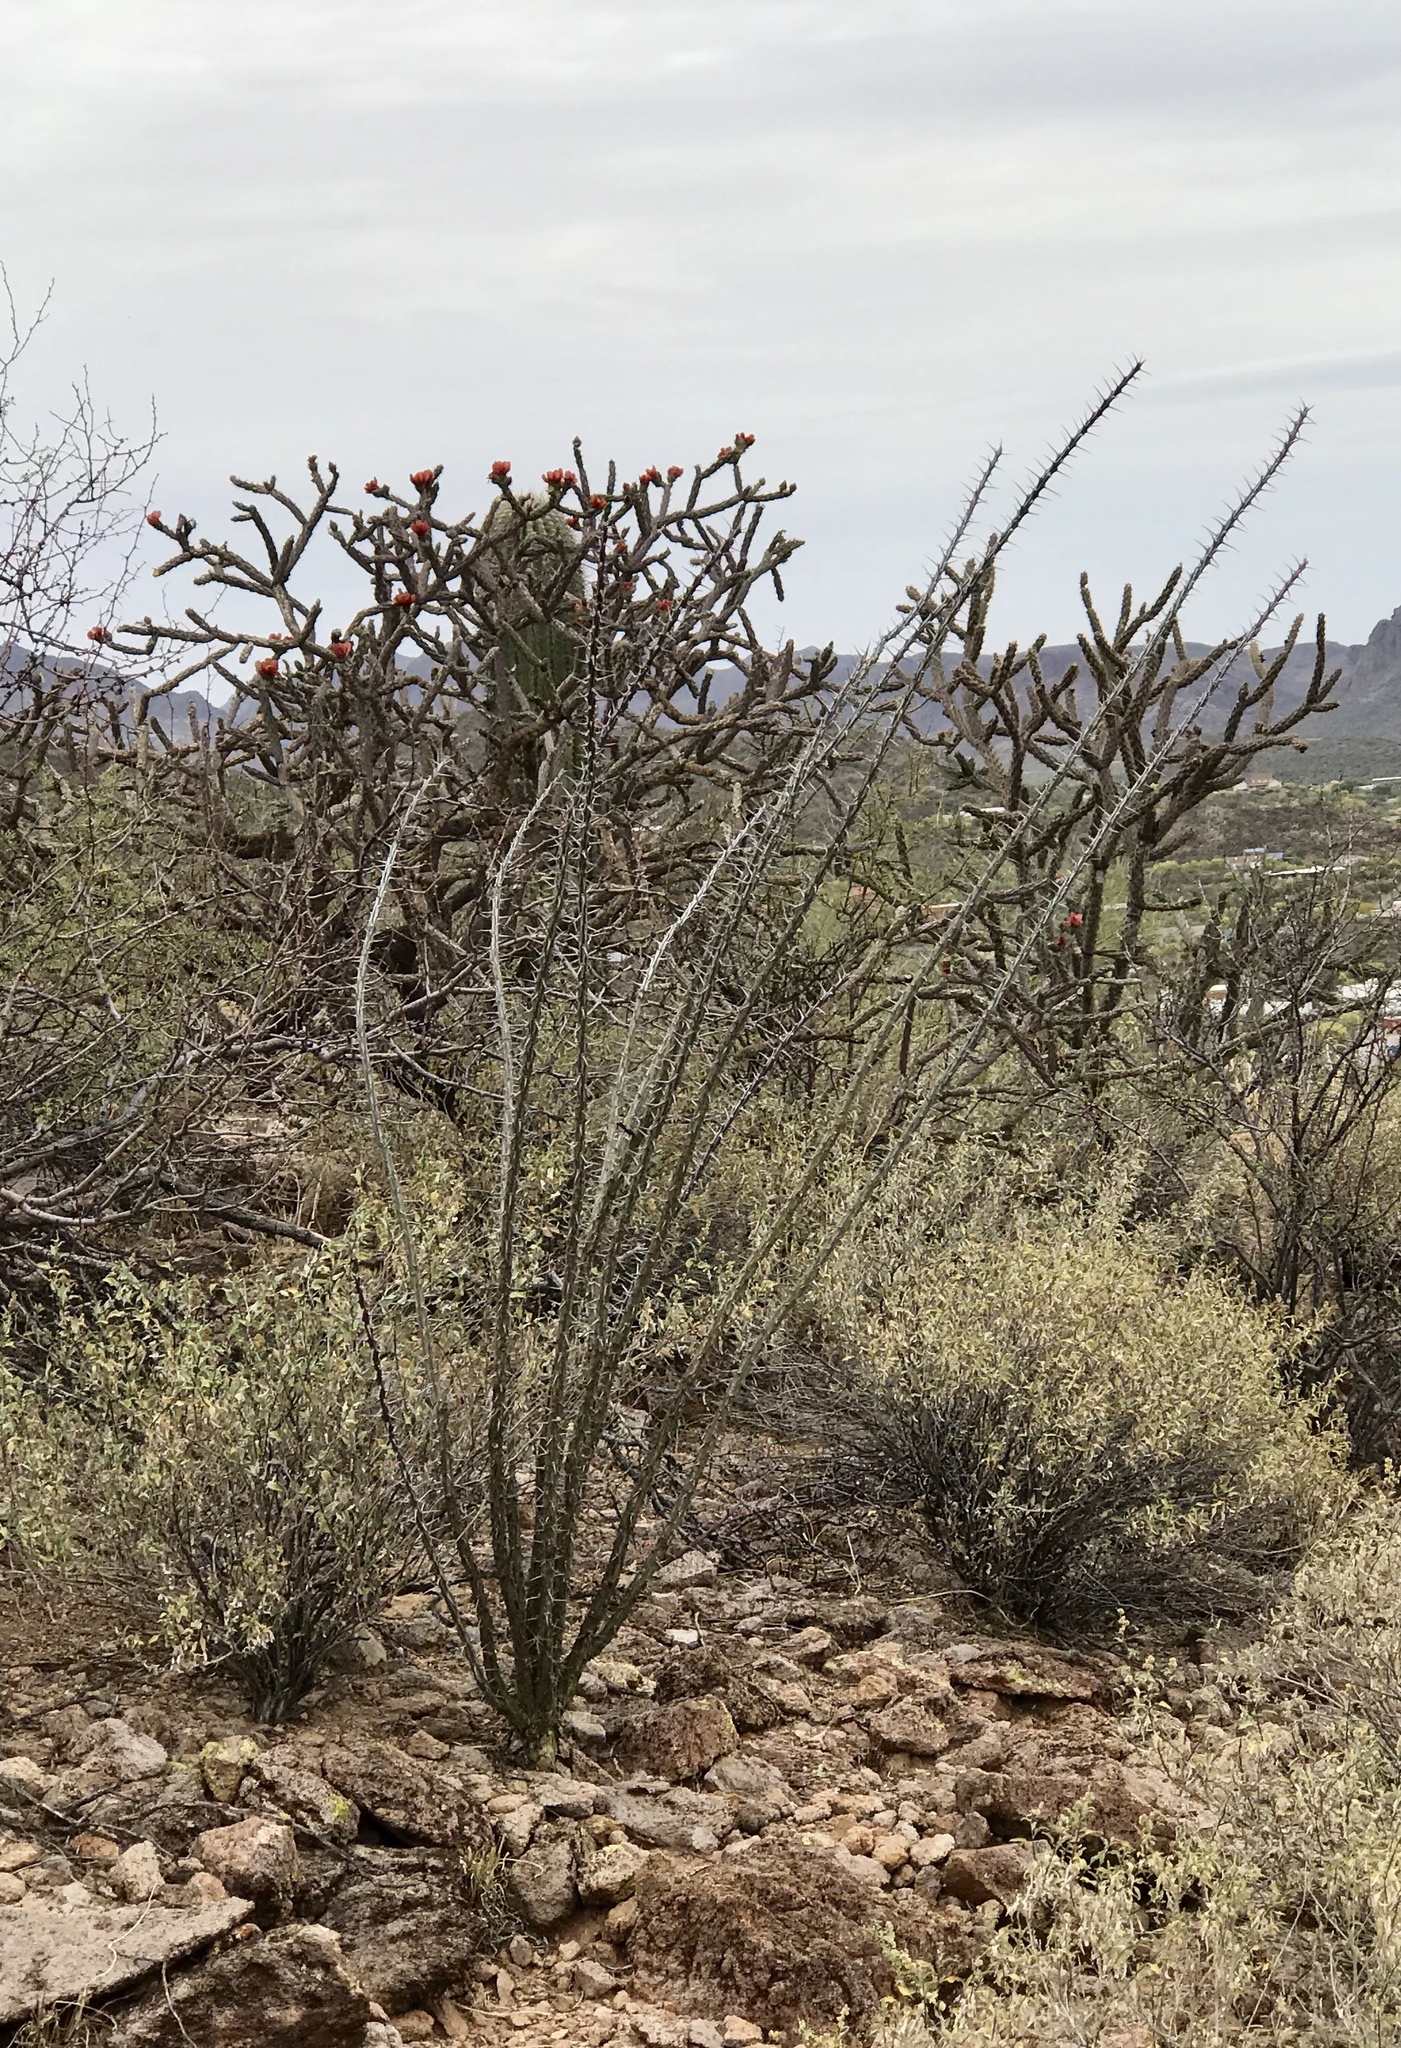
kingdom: Plantae
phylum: Tracheophyta
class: Magnoliopsida
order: Ericales
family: Fouquieriaceae
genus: Fouquieria
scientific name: Fouquieria splendens
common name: Vine-cactus
